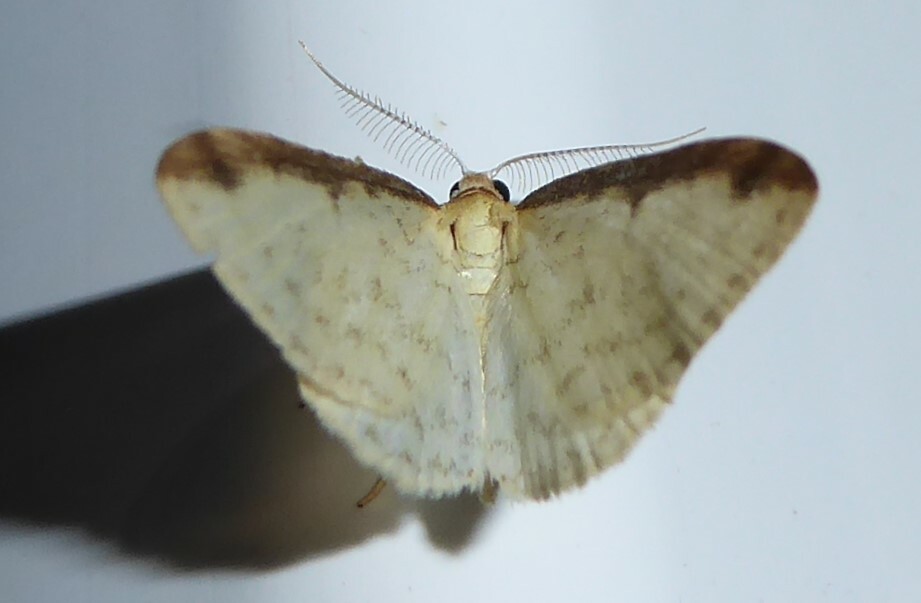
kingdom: Animalia
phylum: Arthropoda
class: Insecta
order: Lepidoptera
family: Geometridae
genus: Epiphryne
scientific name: Epiphryne undosata
